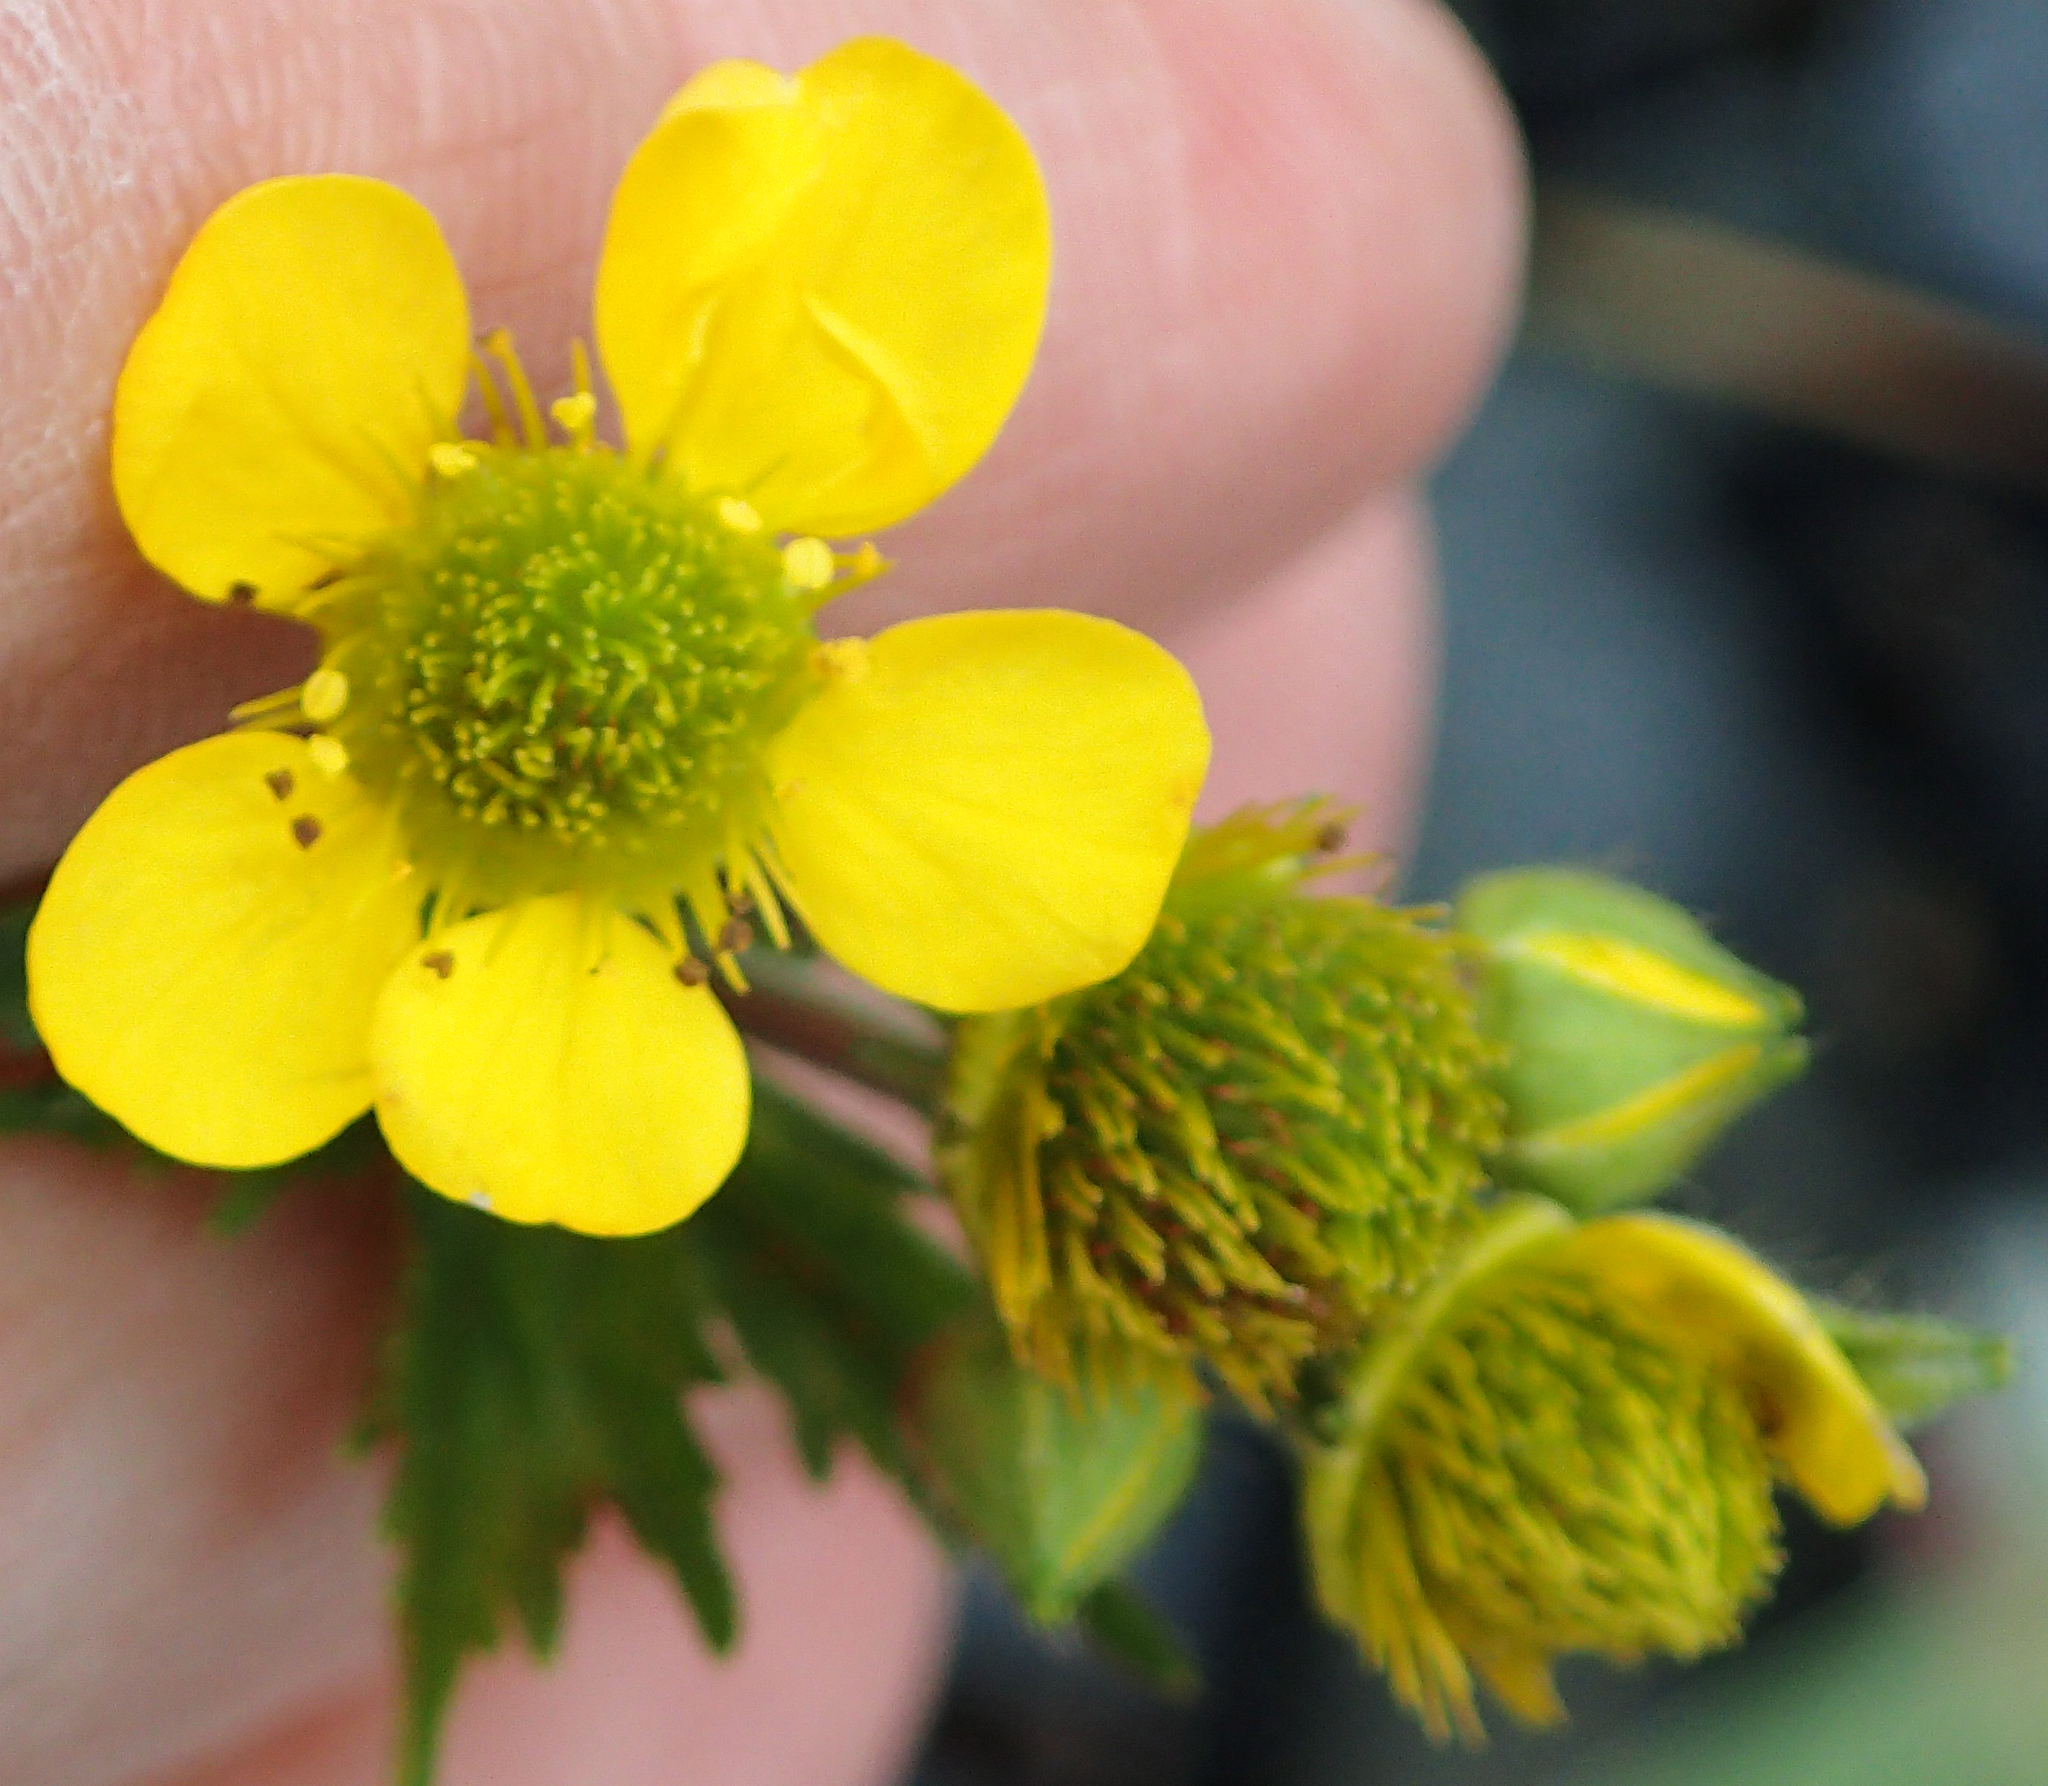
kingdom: Plantae
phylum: Tracheophyta
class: Magnoliopsida
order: Rosales
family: Rosaceae
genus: Geum
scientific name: Geum macrophyllum
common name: Large-leaved avens
